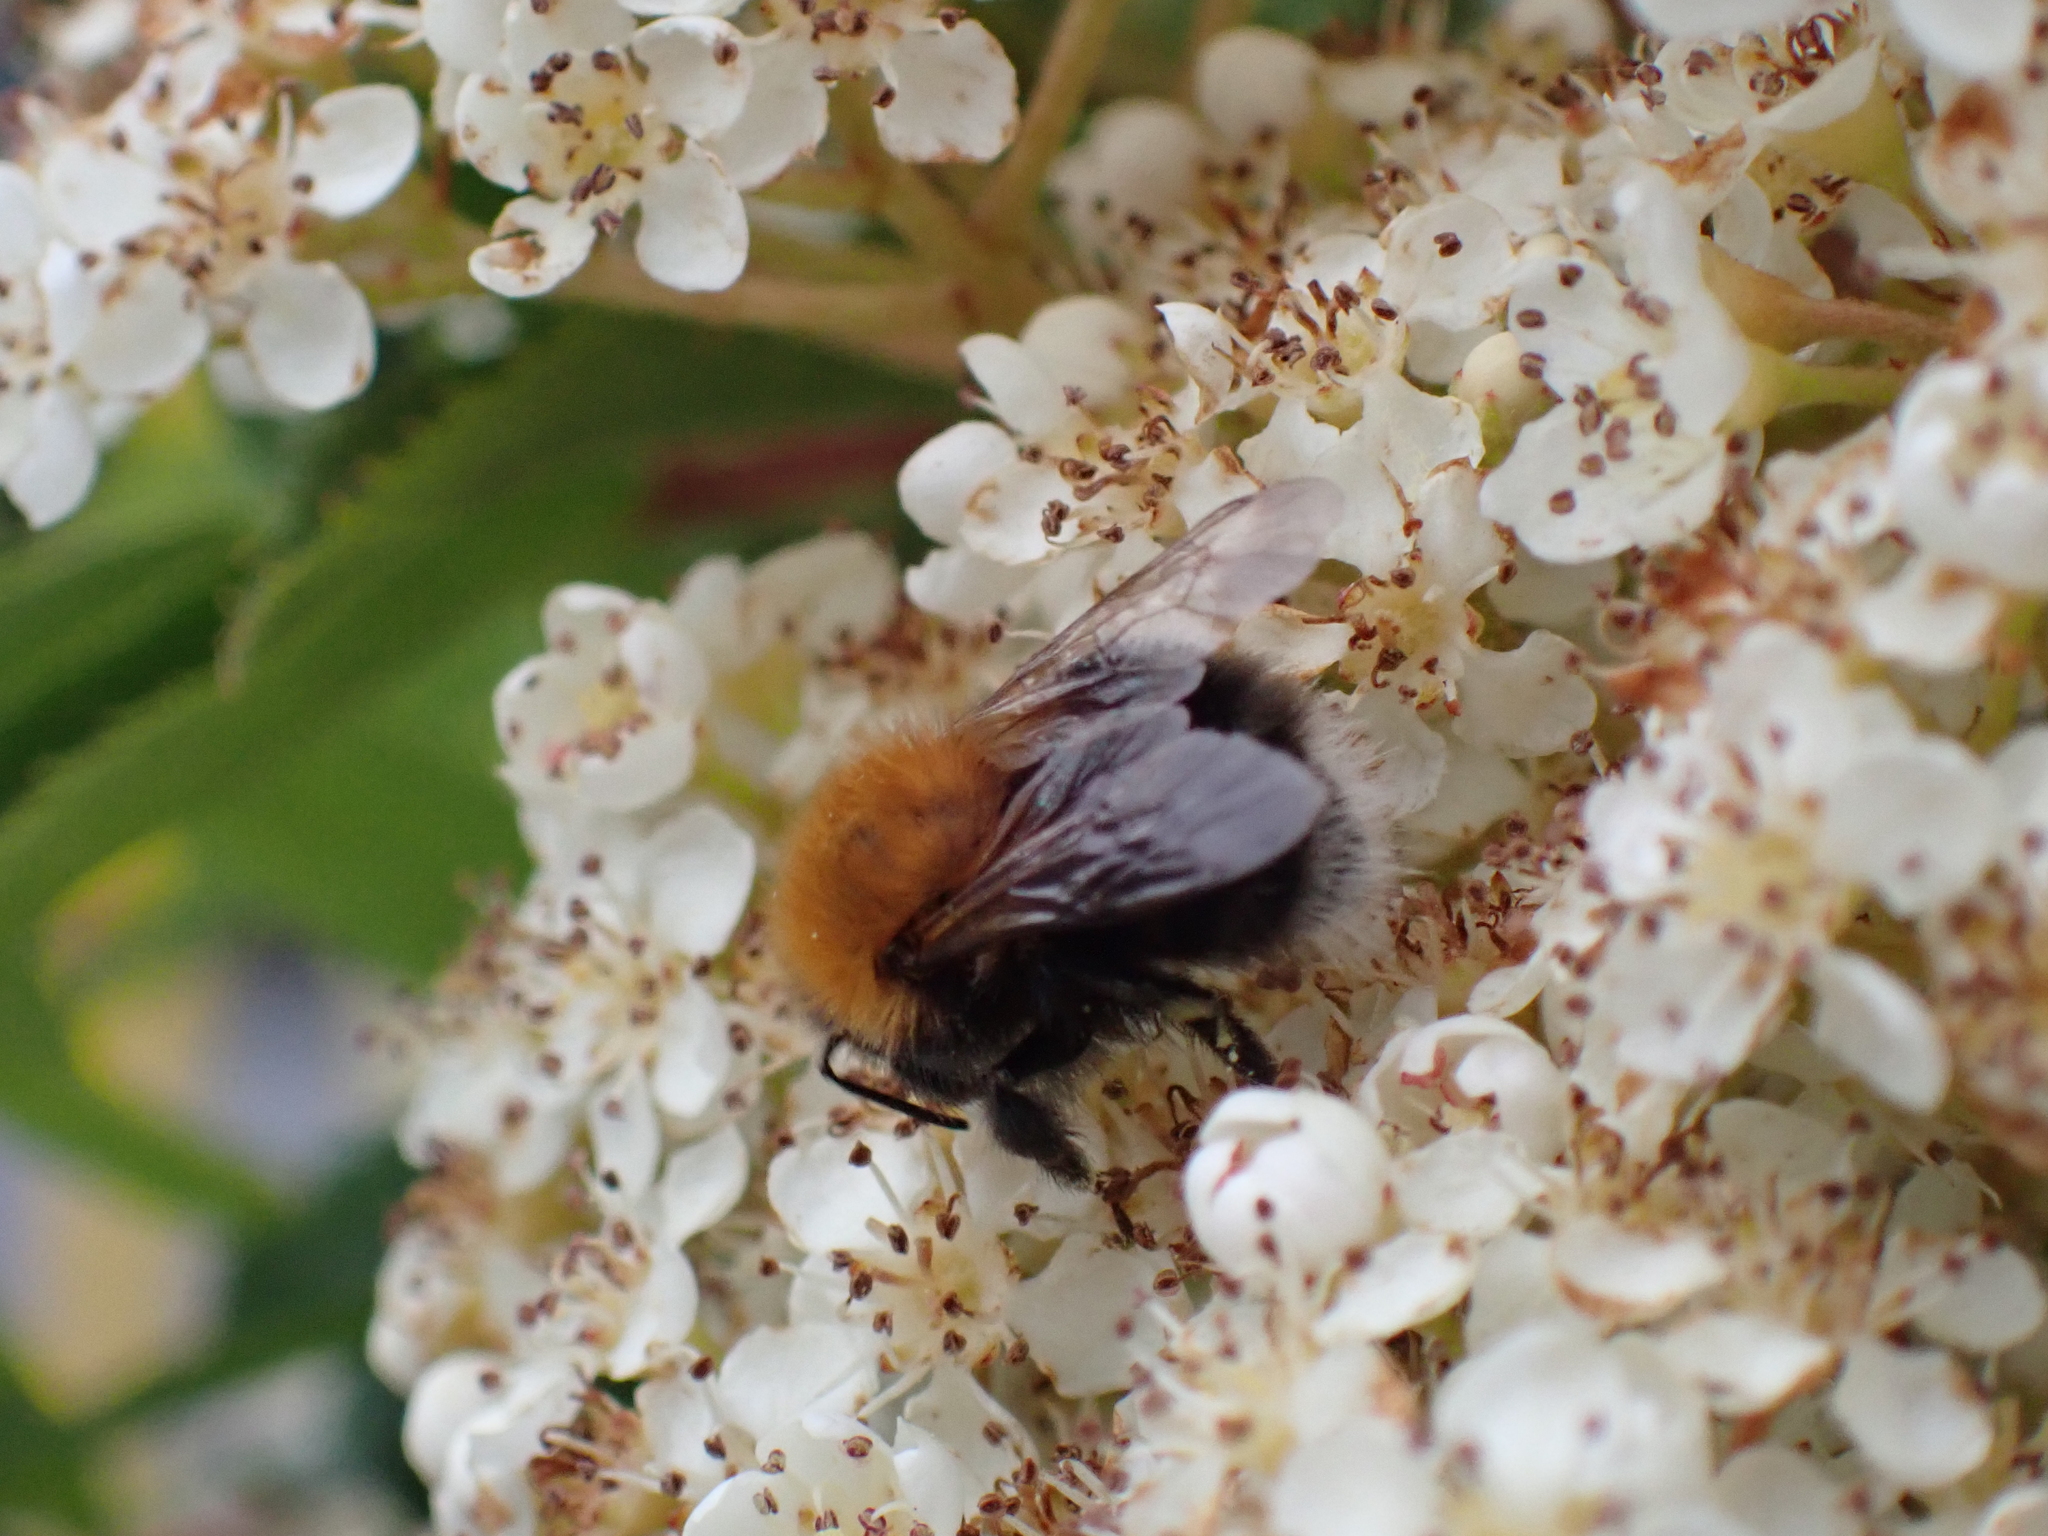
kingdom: Animalia
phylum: Arthropoda
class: Insecta
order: Hymenoptera
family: Apidae
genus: Bombus
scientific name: Bombus hypnorum
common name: New garden bumblebee
